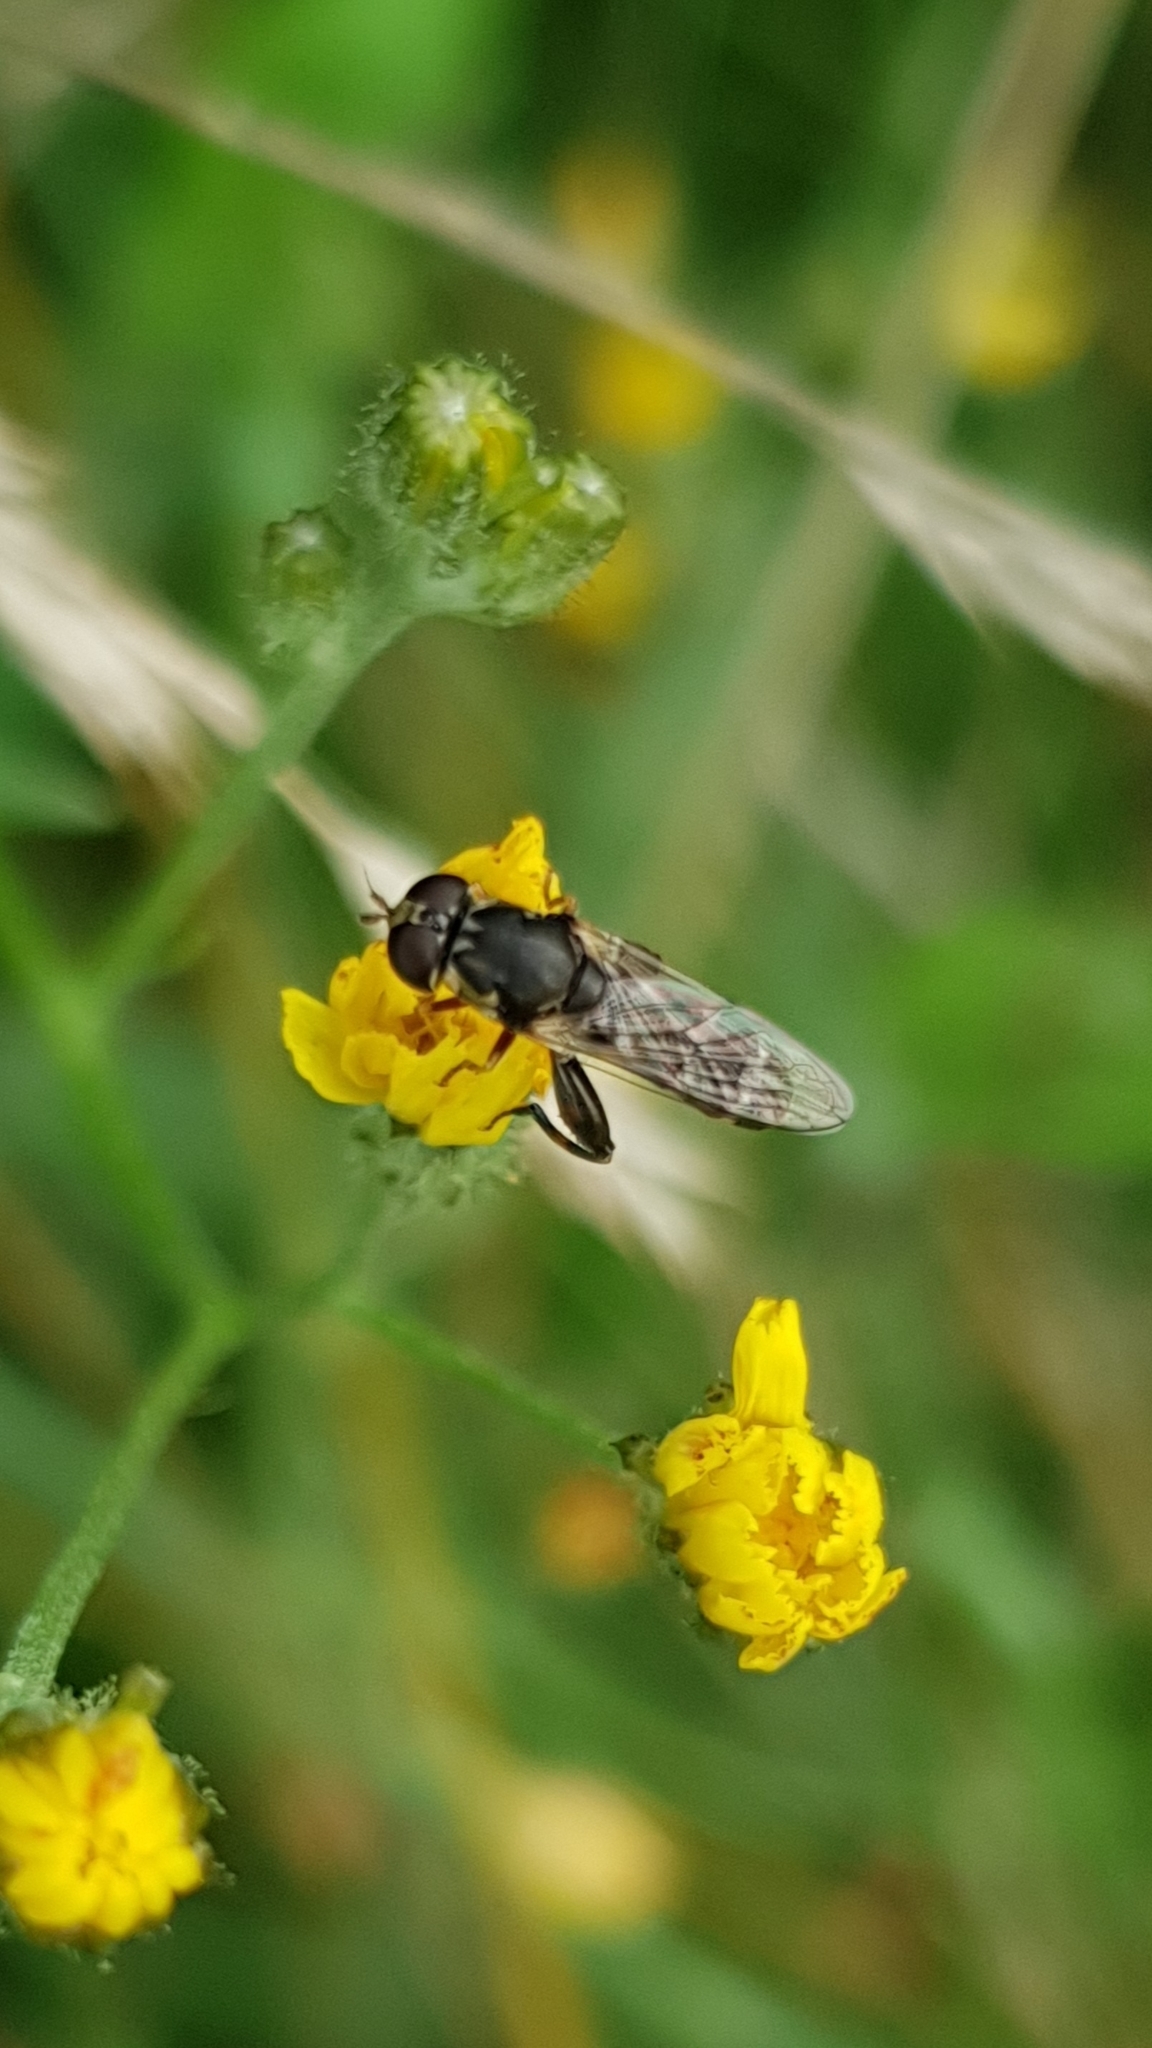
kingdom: Animalia
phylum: Arthropoda
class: Insecta
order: Diptera
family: Syrphidae
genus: Syritta
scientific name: Syritta pipiens
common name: Hover fly
